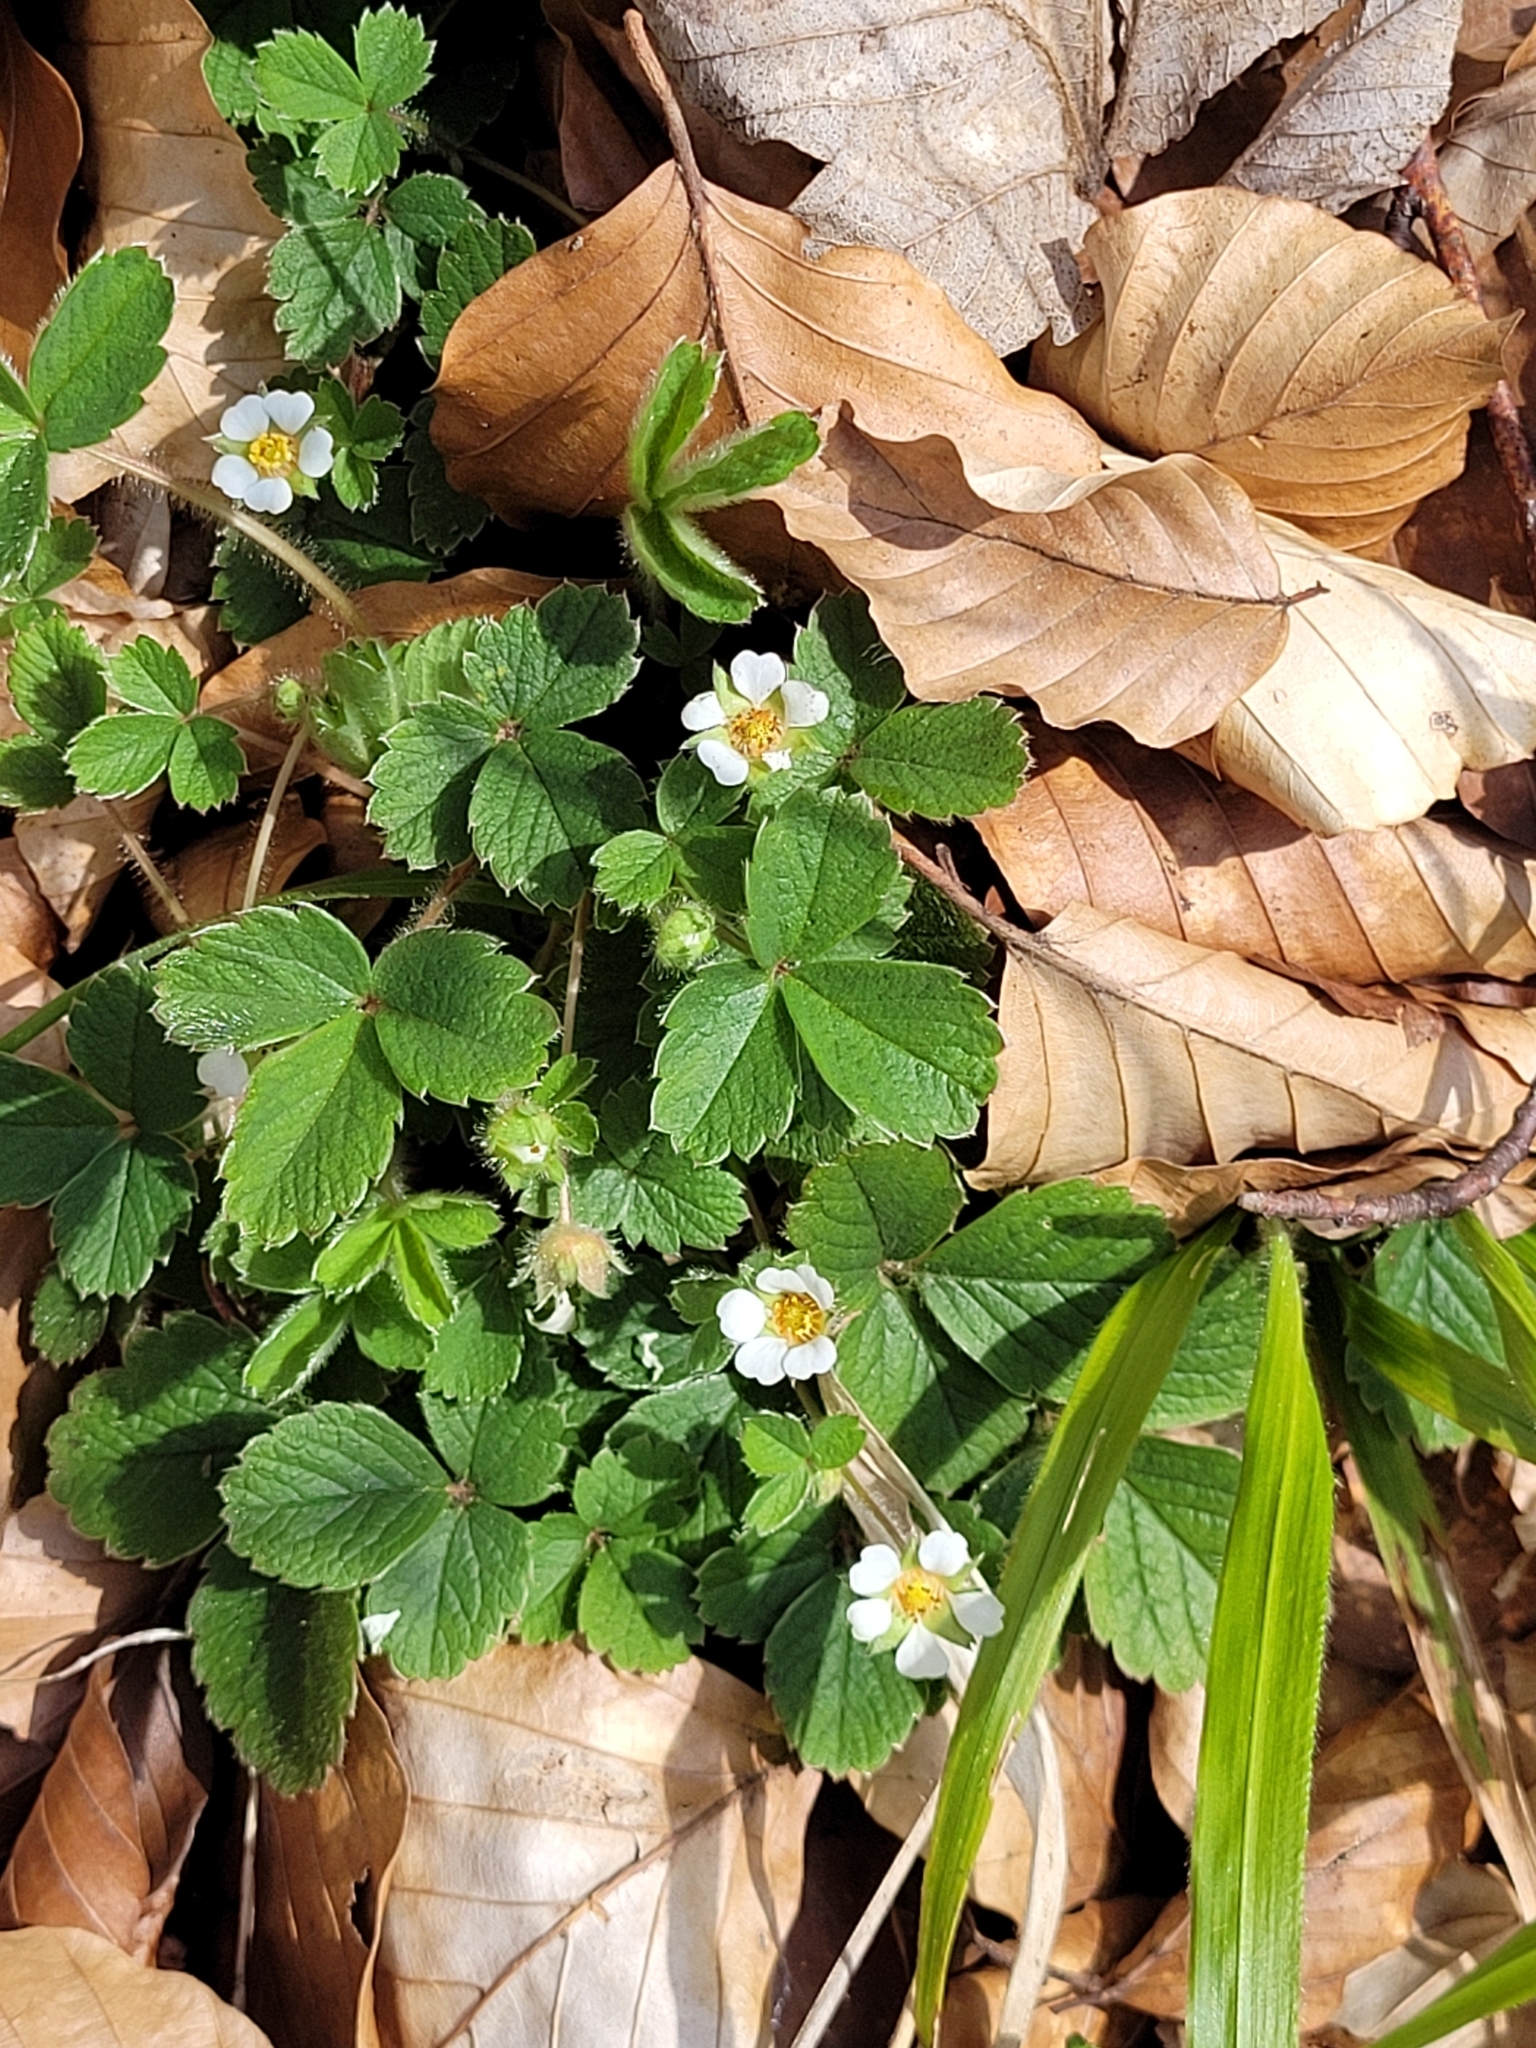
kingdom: Plantae
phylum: Tracheophyta
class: Magnoliopsida
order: Rosales
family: Rosaceae
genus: Potentilla
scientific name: Potentilla sterilis
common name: Barren strawberry
